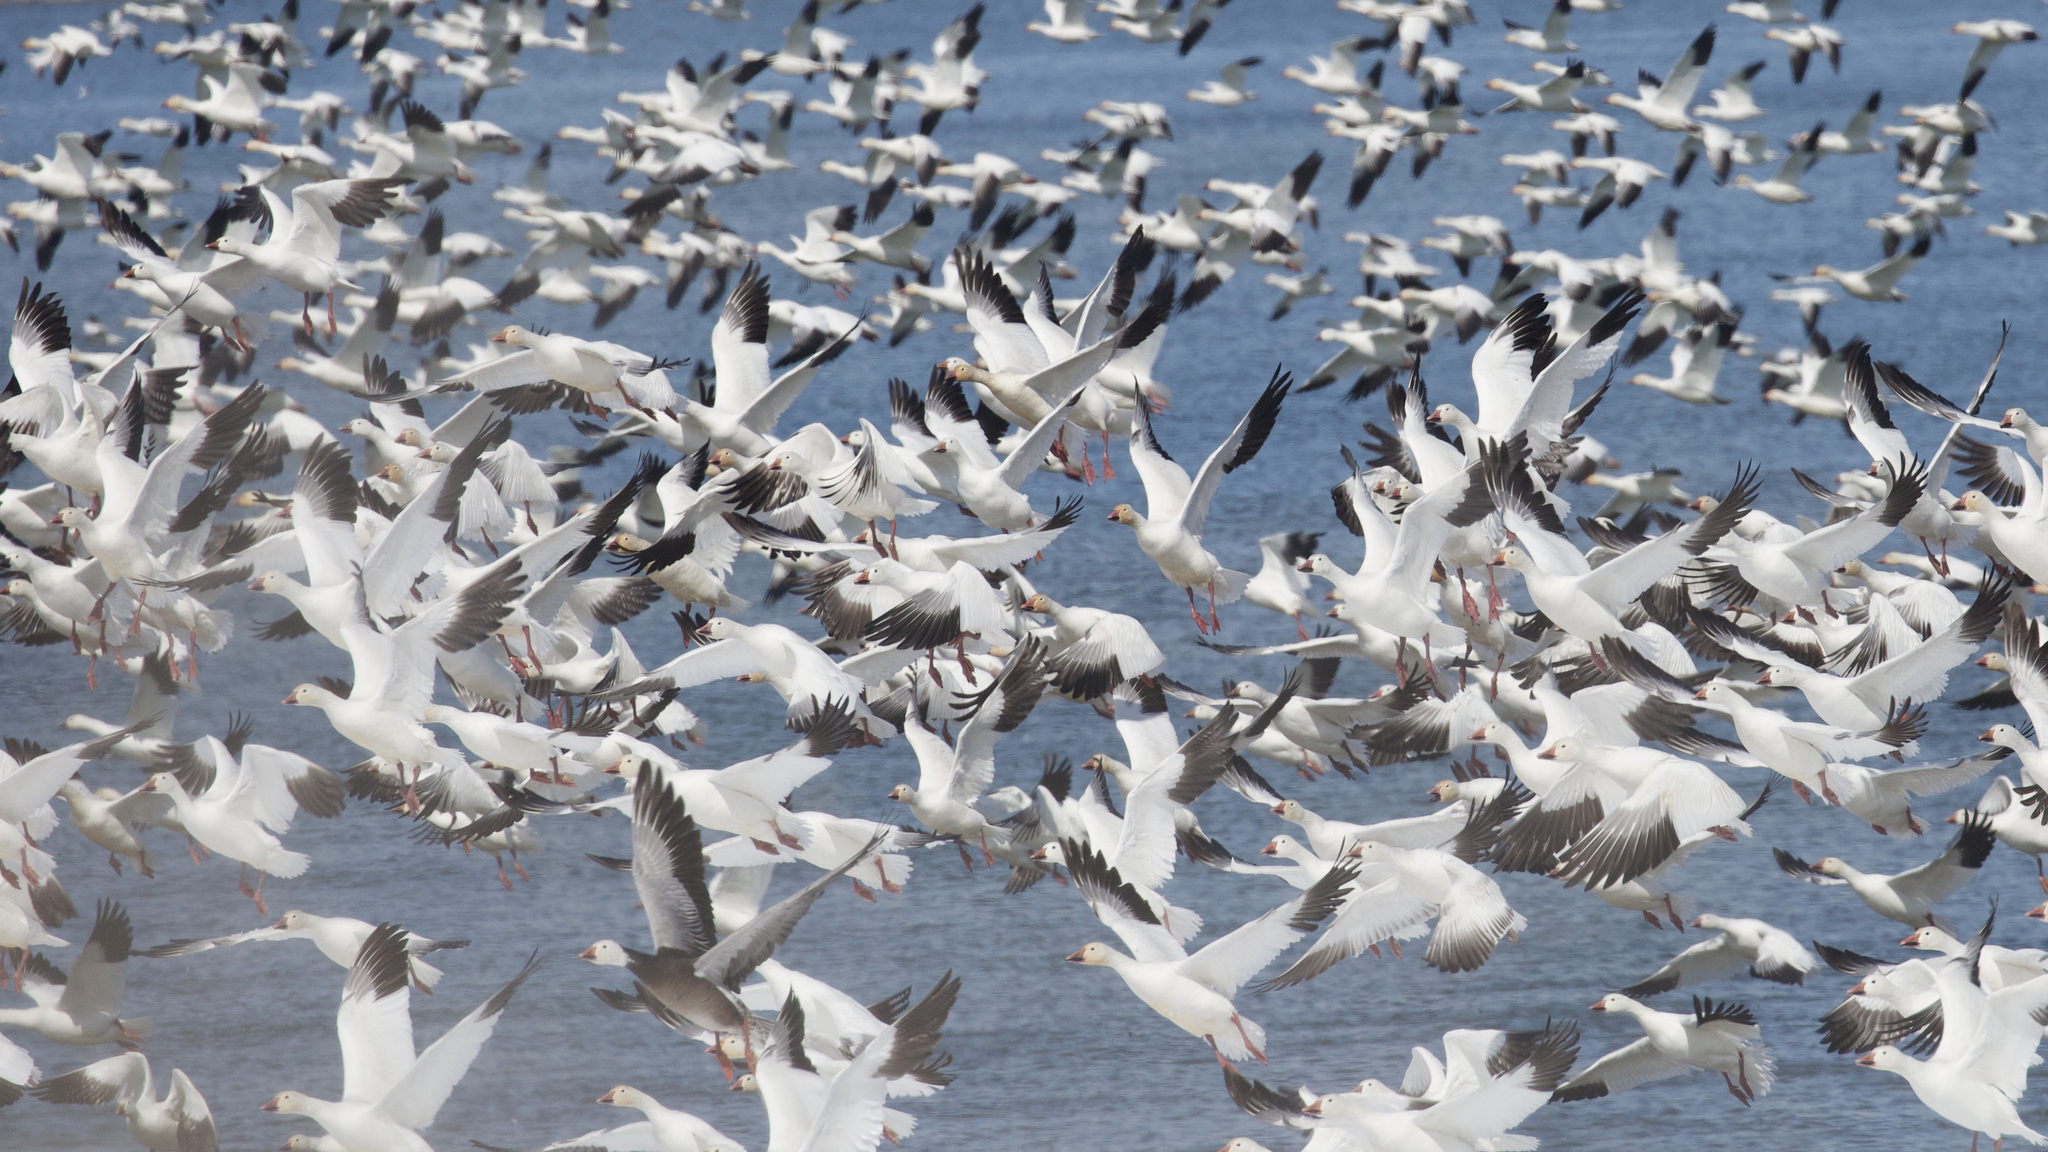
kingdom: Animalia
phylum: Chordata
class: Aves
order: Anseriformes
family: Anatidae
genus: Anser
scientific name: Anser caerulescens
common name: Snow goose
